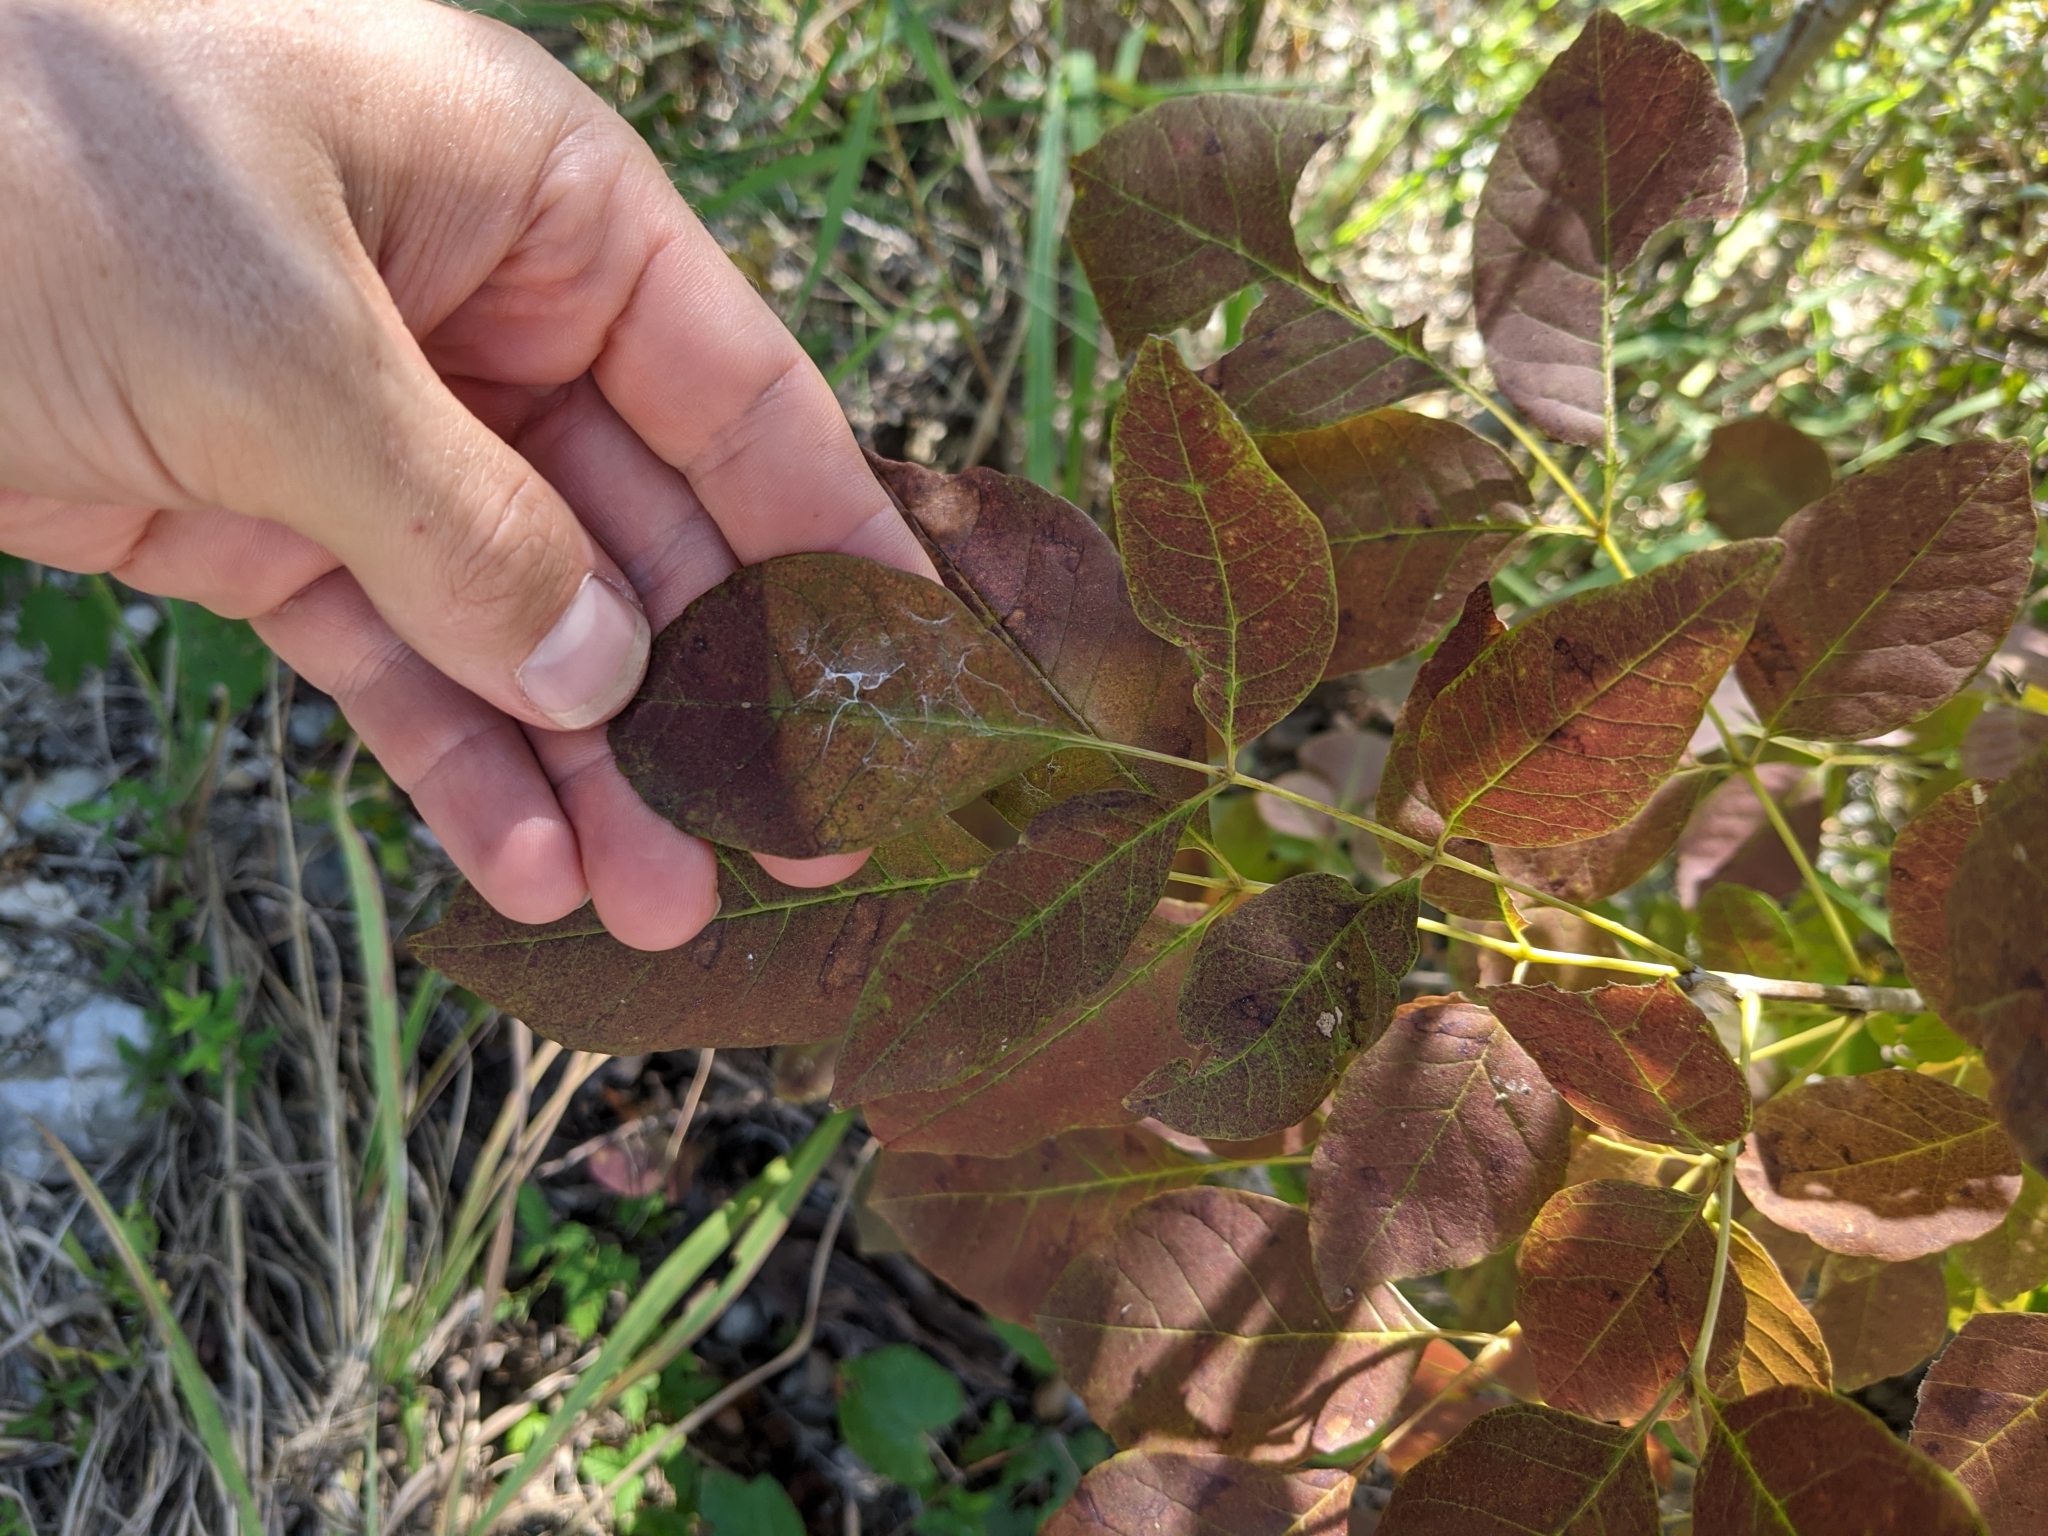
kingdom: Plantae
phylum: Tracheophyta
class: Magnoliopsida
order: Lamiales
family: Oleaceae
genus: Fraxinus
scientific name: Fraxinus albicans
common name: Texas ash
